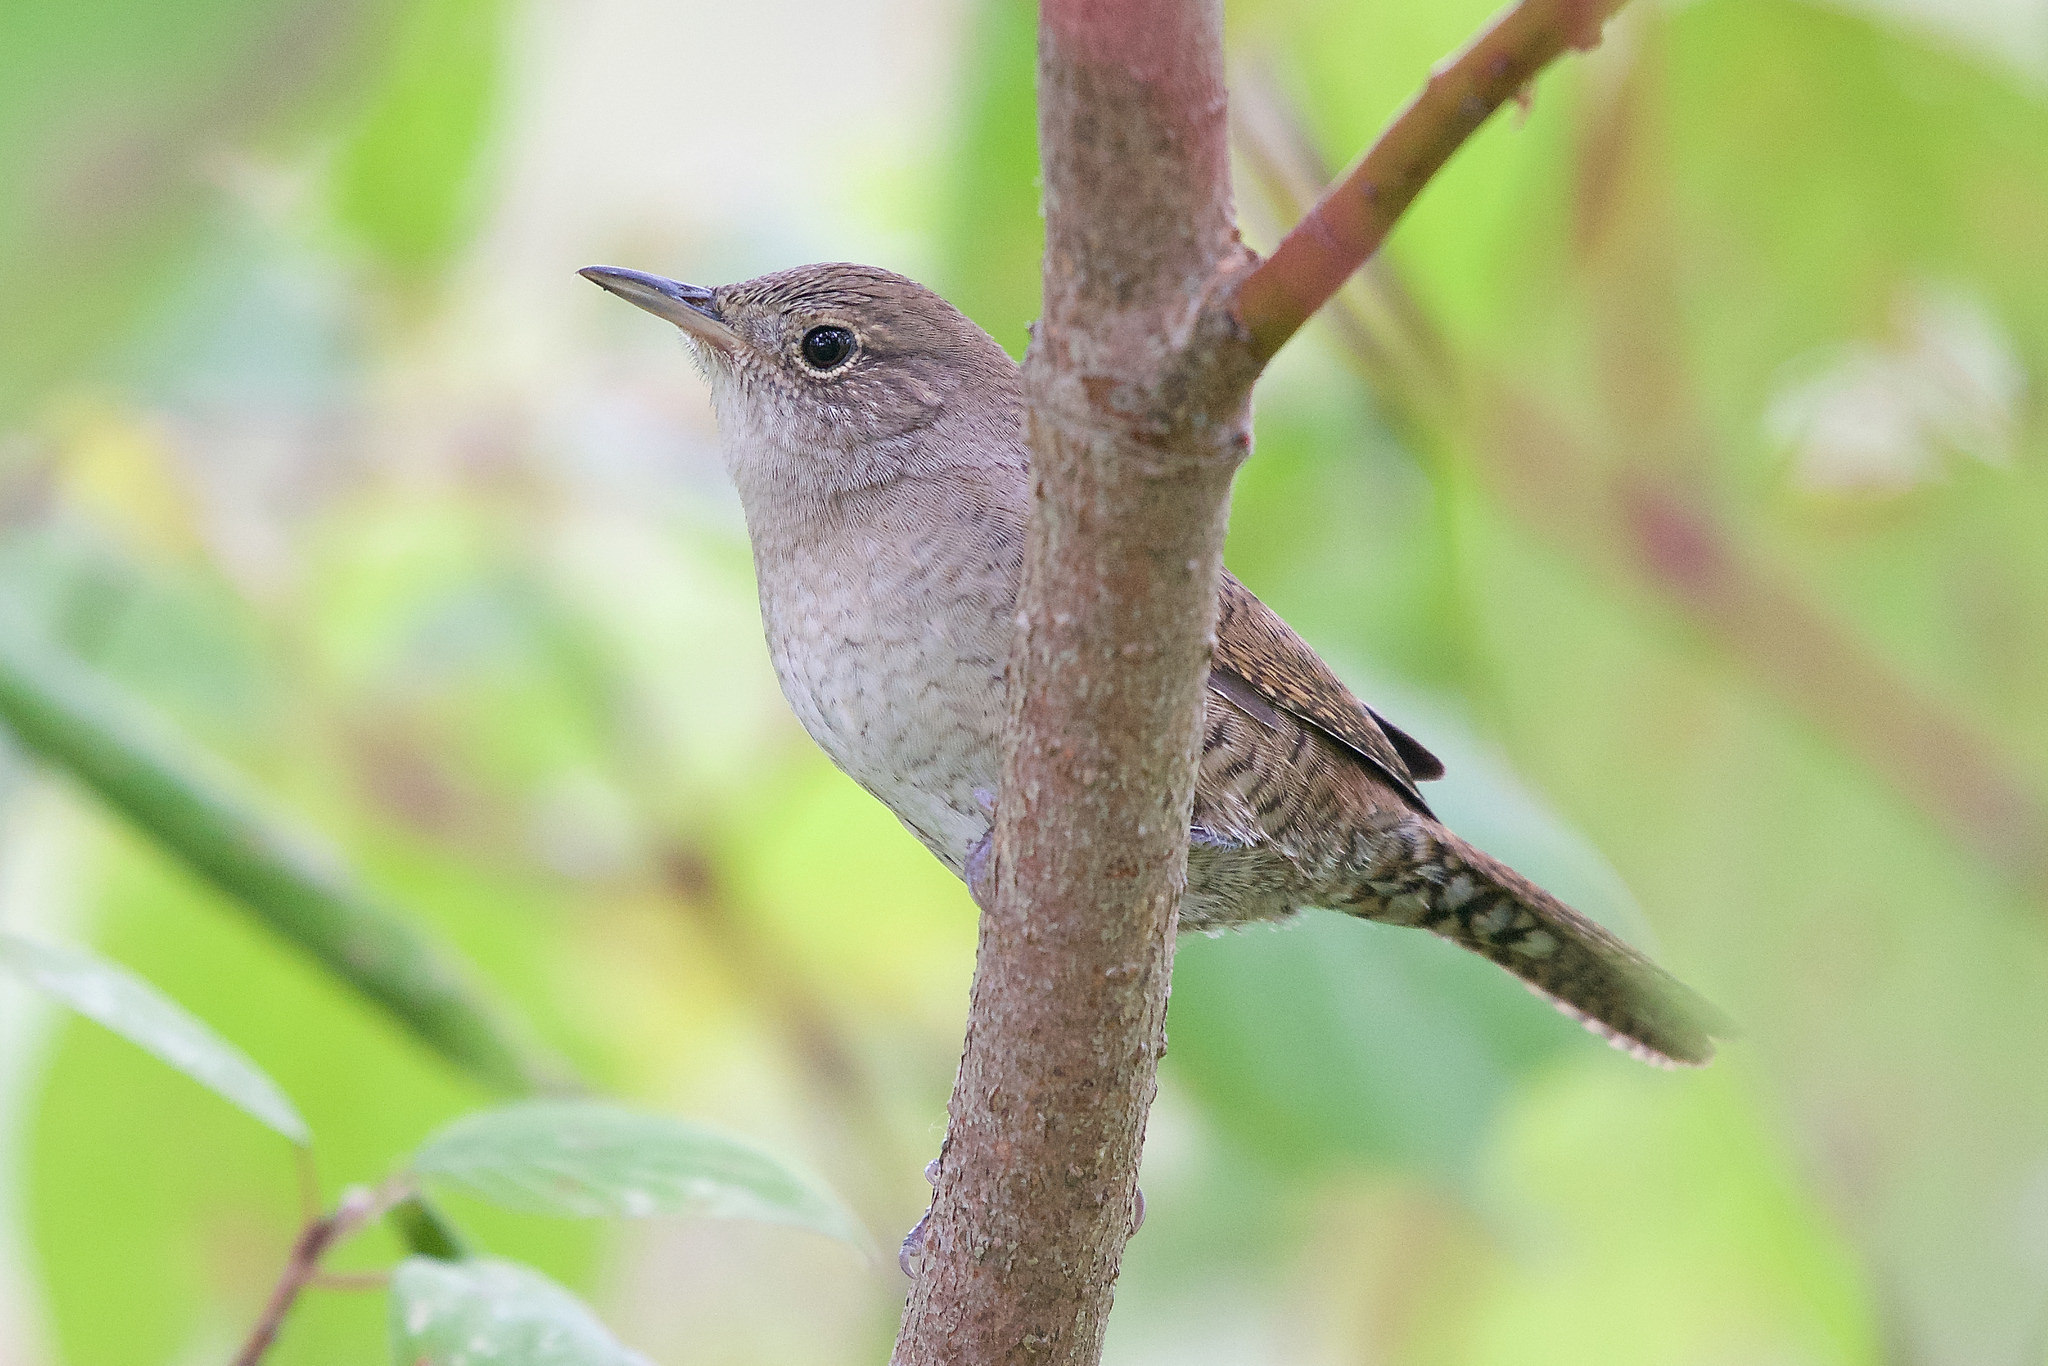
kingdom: Animalia
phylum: Chordata
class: Aves
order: Passeriformes
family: Troglodytidae
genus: Troglodytes
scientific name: Troglodytes aedon
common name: House wren
